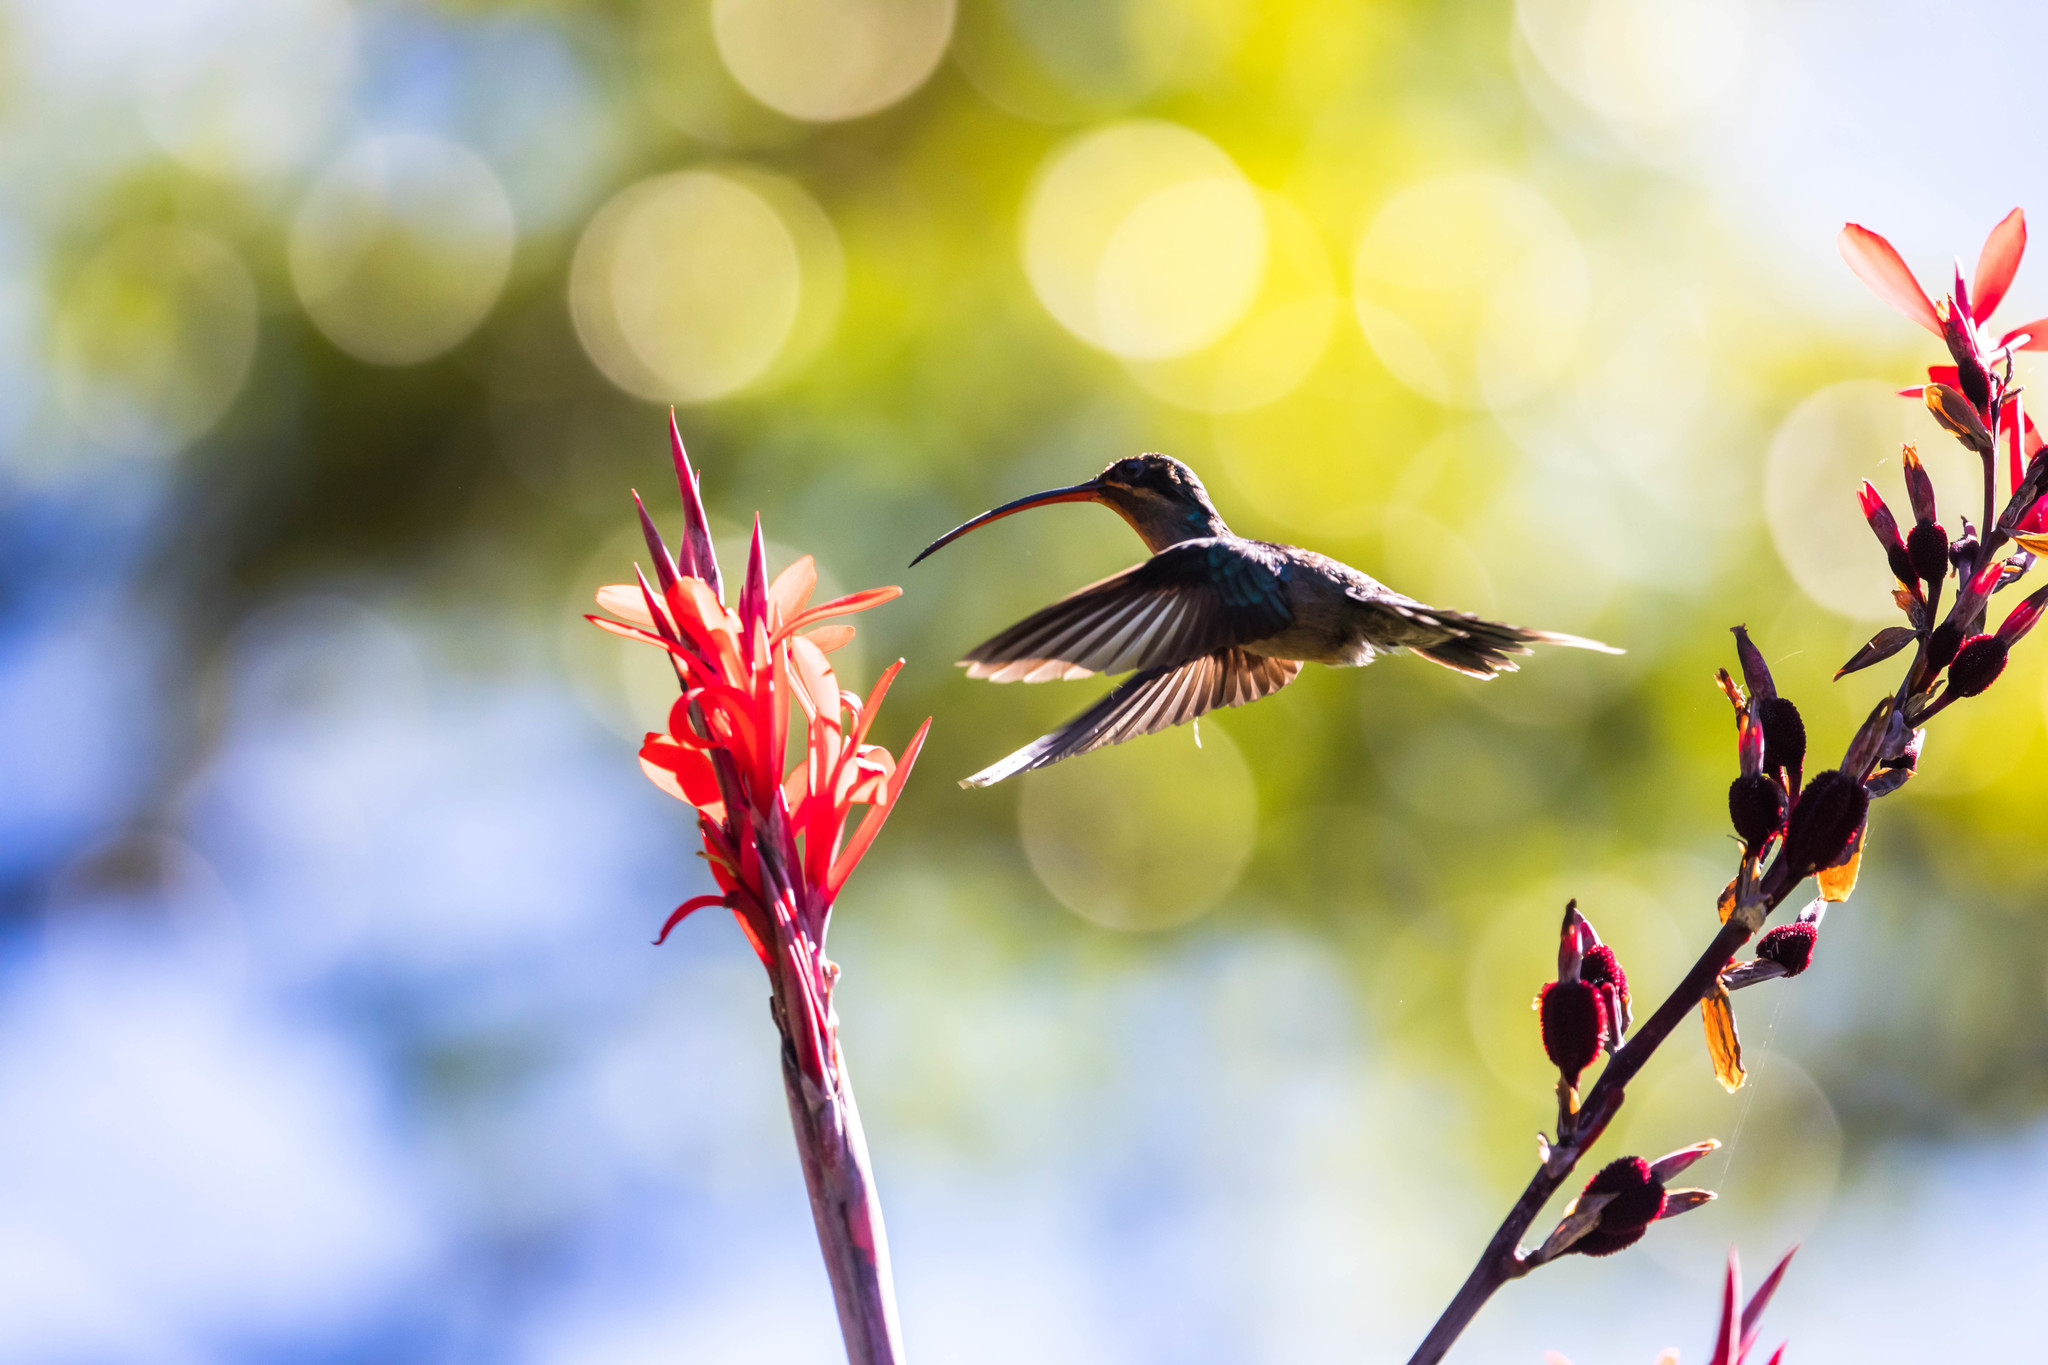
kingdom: Animalia
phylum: Chordata
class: Aves
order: Apodiformes
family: Trochilidae
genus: Phaethornis
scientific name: Phaethornis guy
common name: Green hermit
